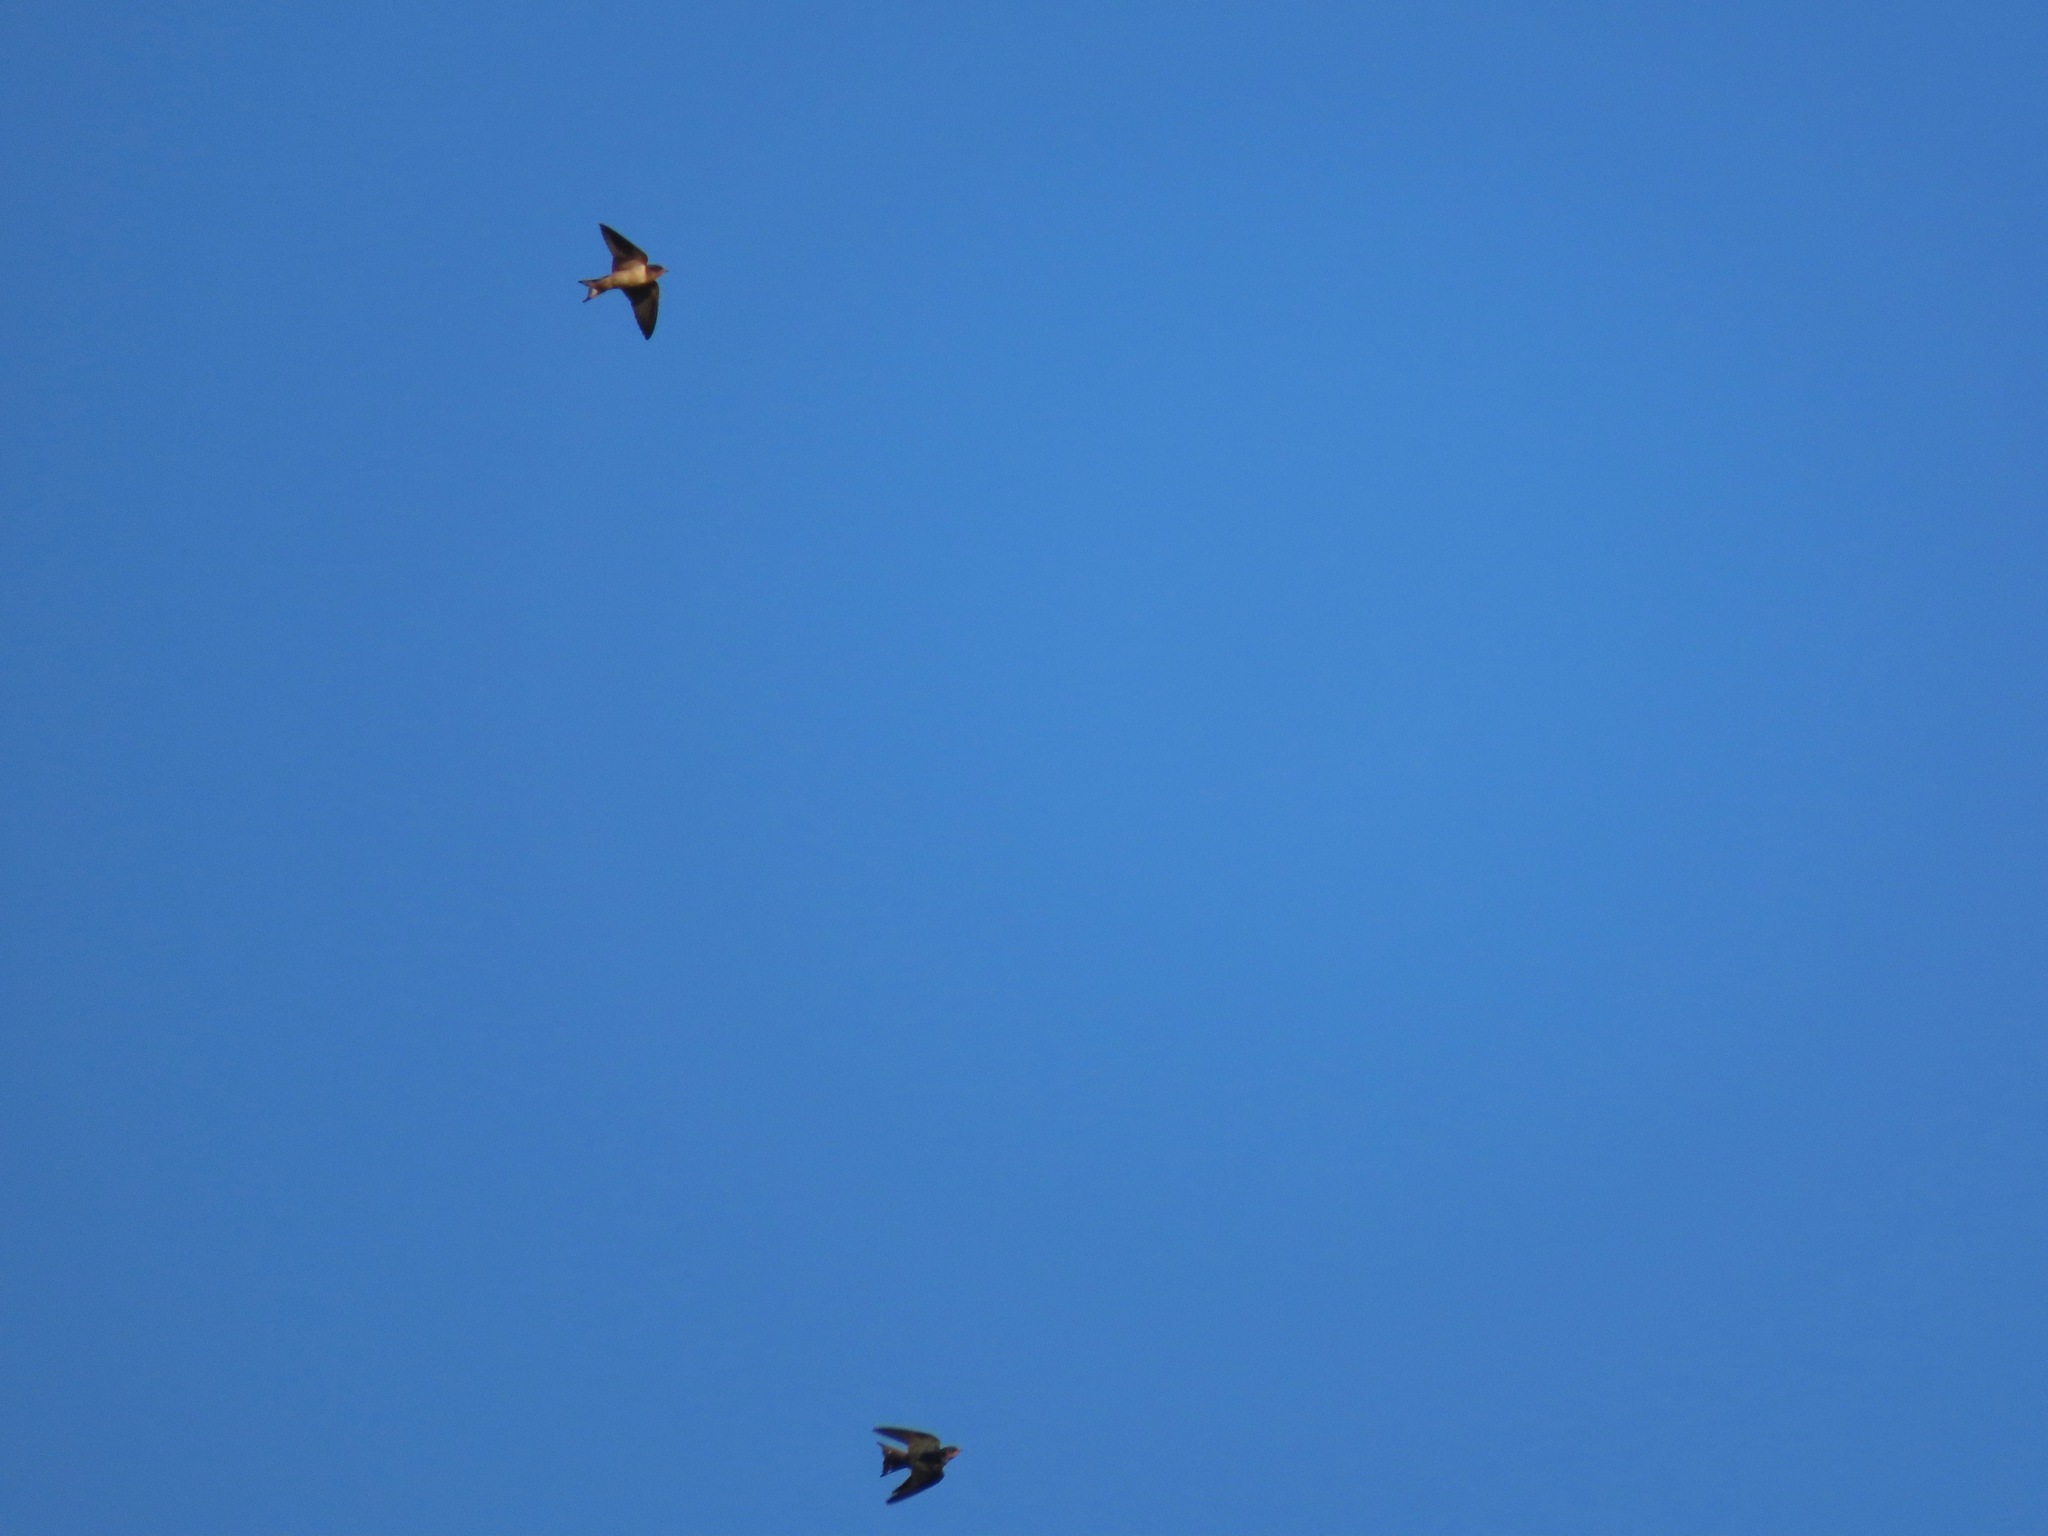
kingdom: Animalia
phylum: Chordata
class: Aves
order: Passeriformes
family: Hirundinidae
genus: Hirundo
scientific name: Hirundo rustica
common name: Barn swallow
